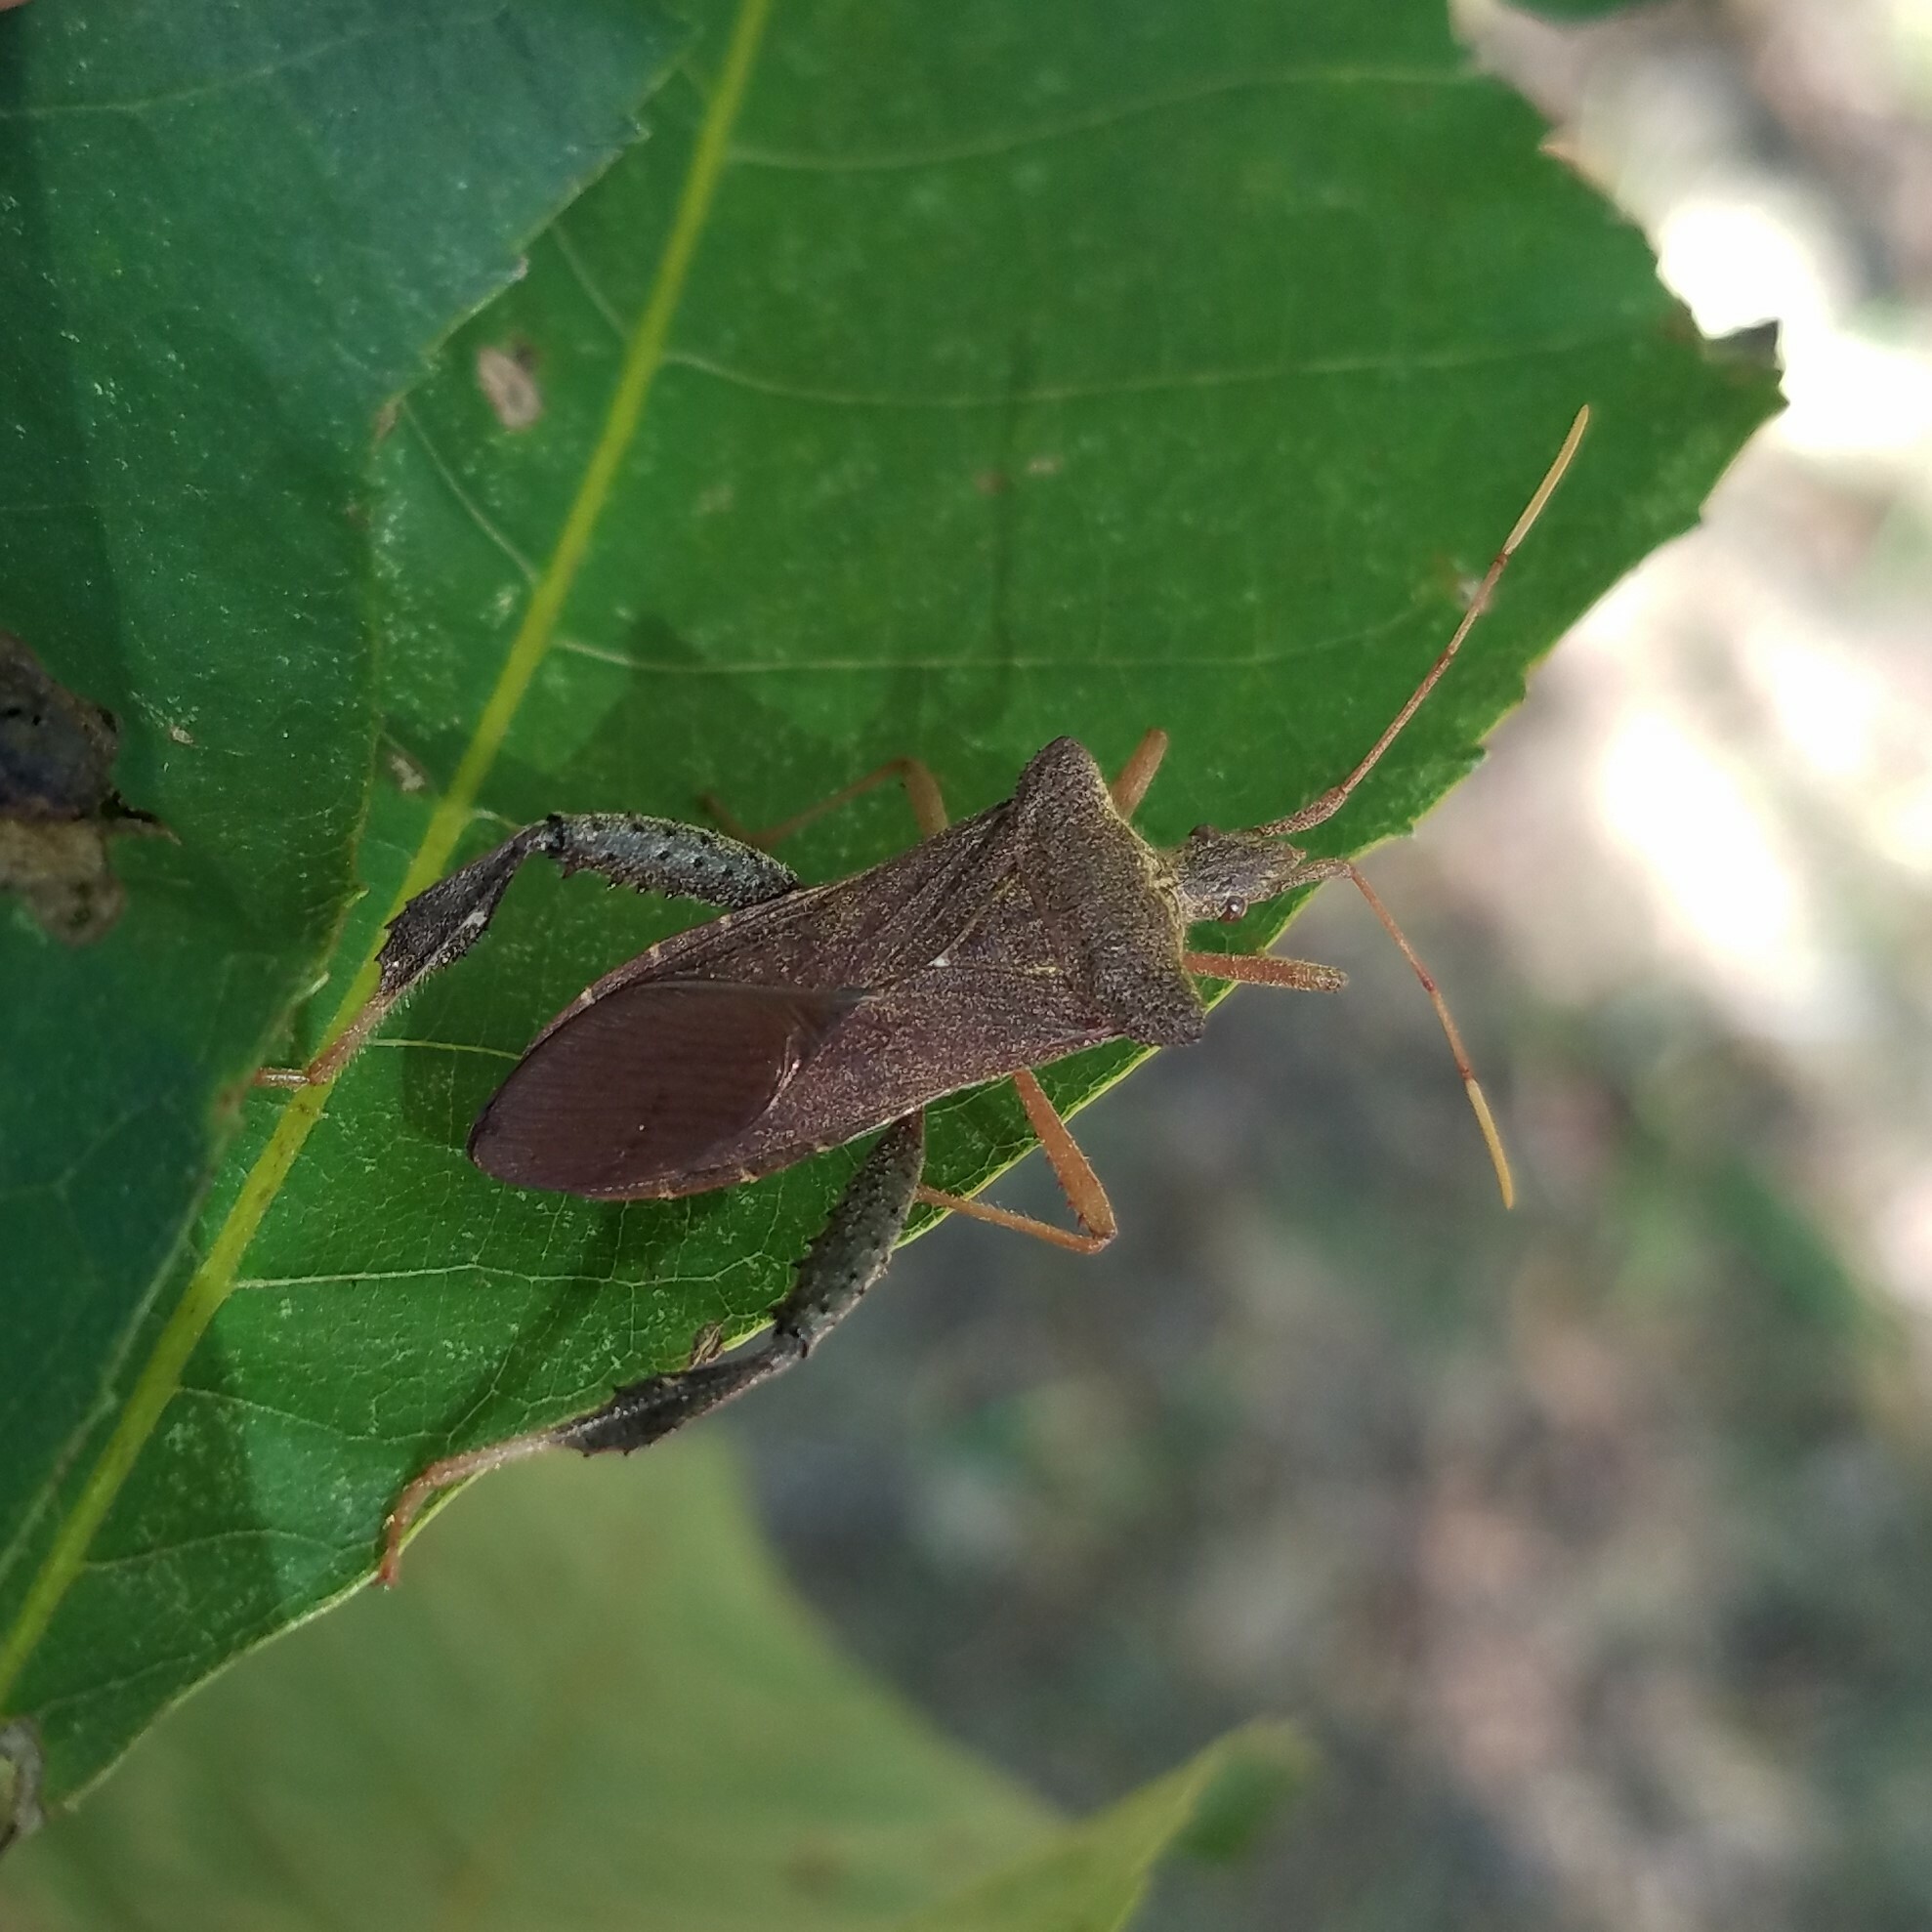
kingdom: Animalia
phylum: Arthropoda
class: Insecta
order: Hemiptera
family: Coreidae
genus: Leptoglossus
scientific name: Leptoglossus fulvicornis
